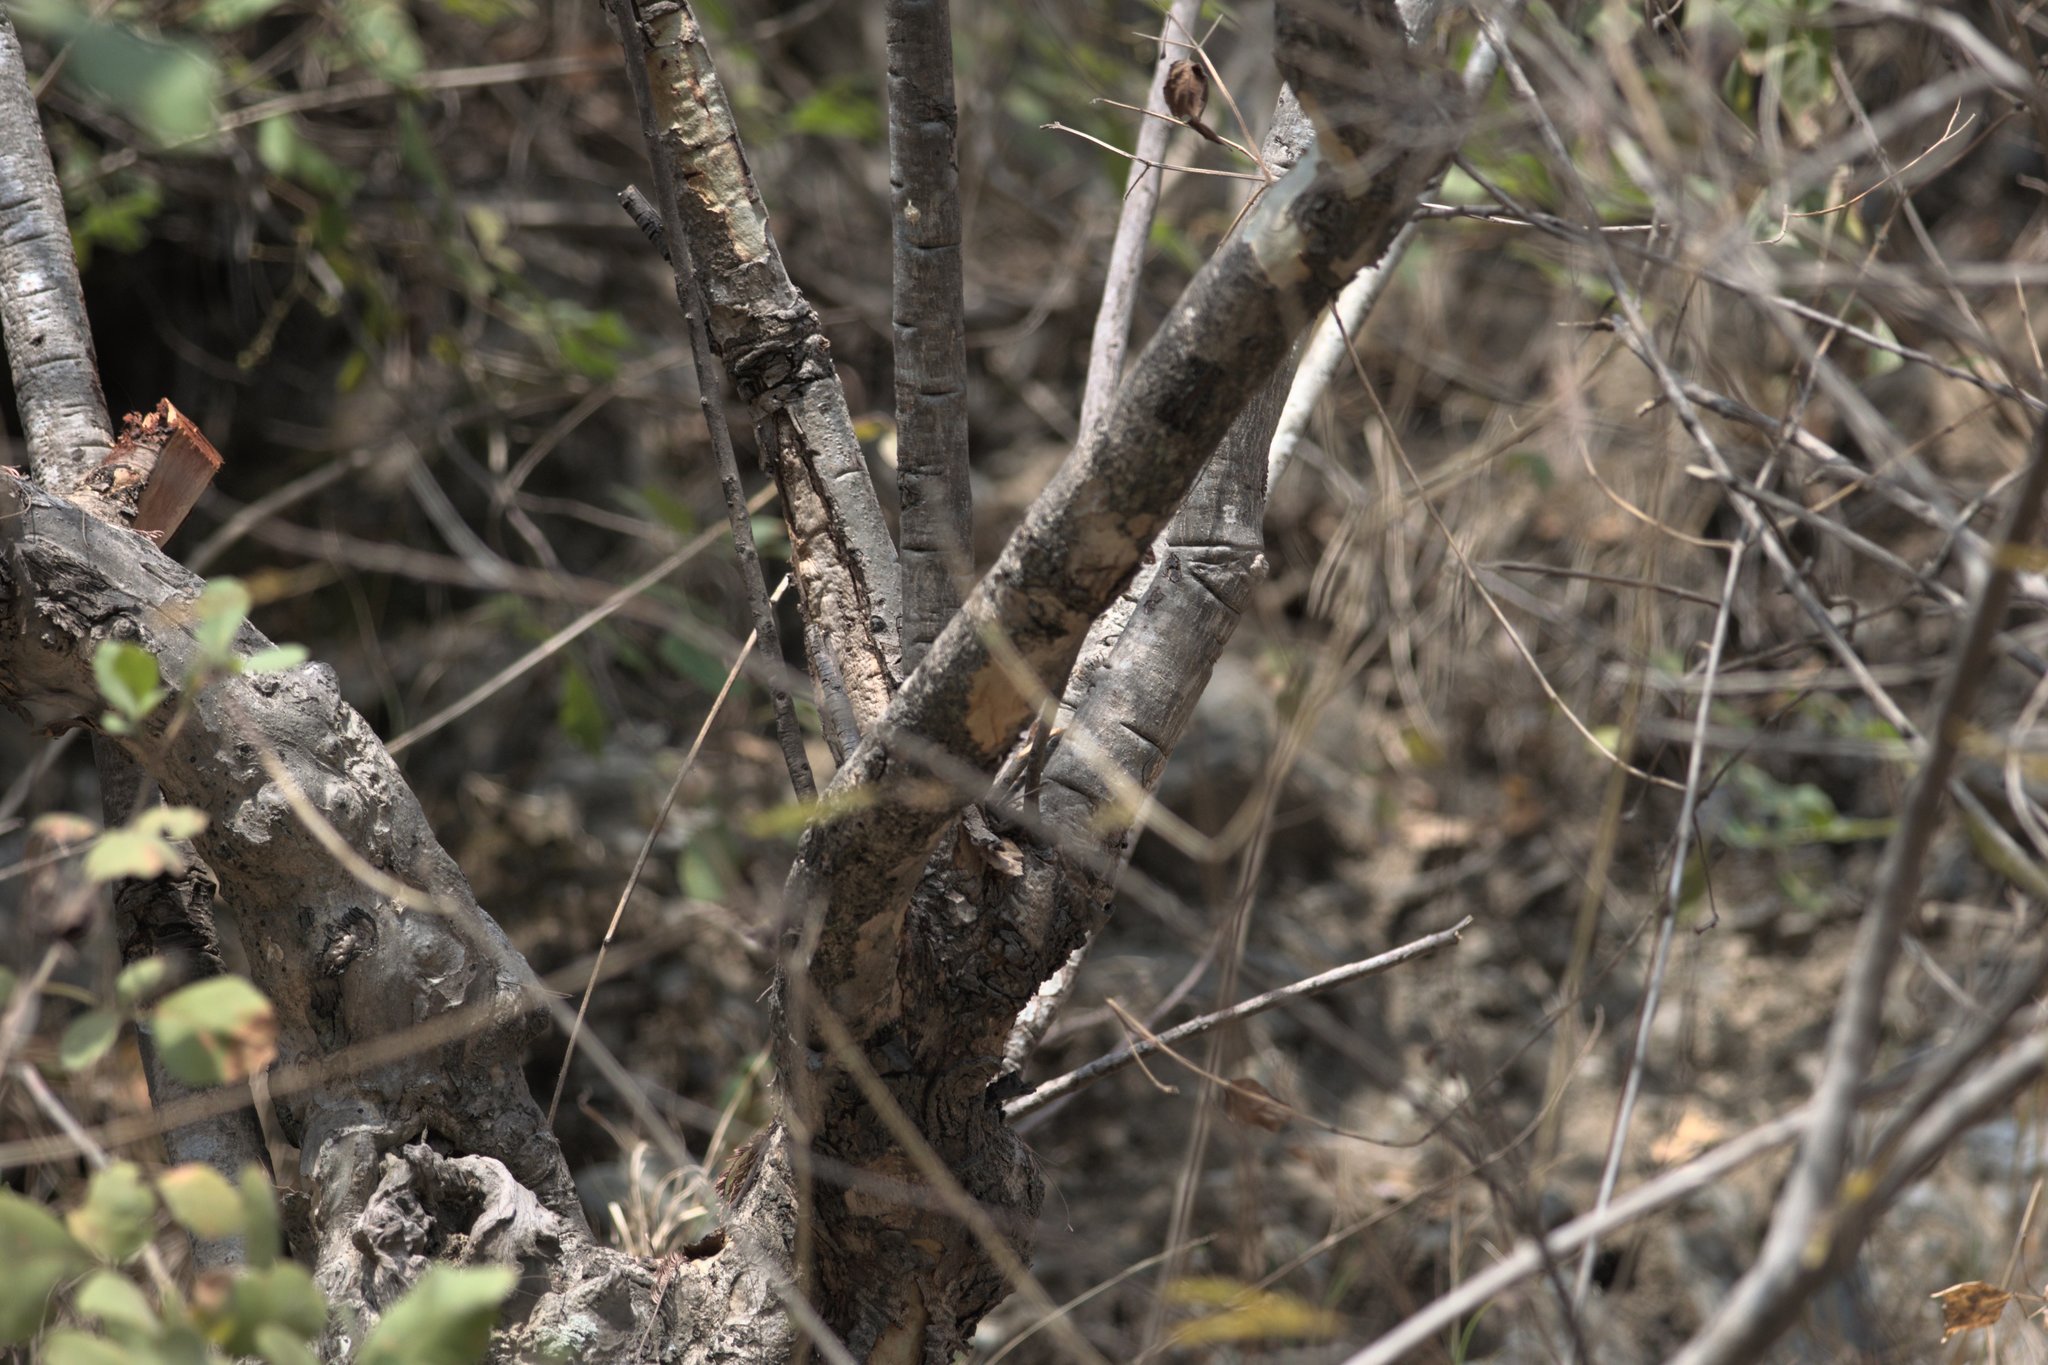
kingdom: Plantae
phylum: Tracheophyta
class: Magnoliopsida
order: Malpighiales
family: Phyllanthaceae
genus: Phyllanthus
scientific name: Phyllanthus emblica
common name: Indian gooseberry
